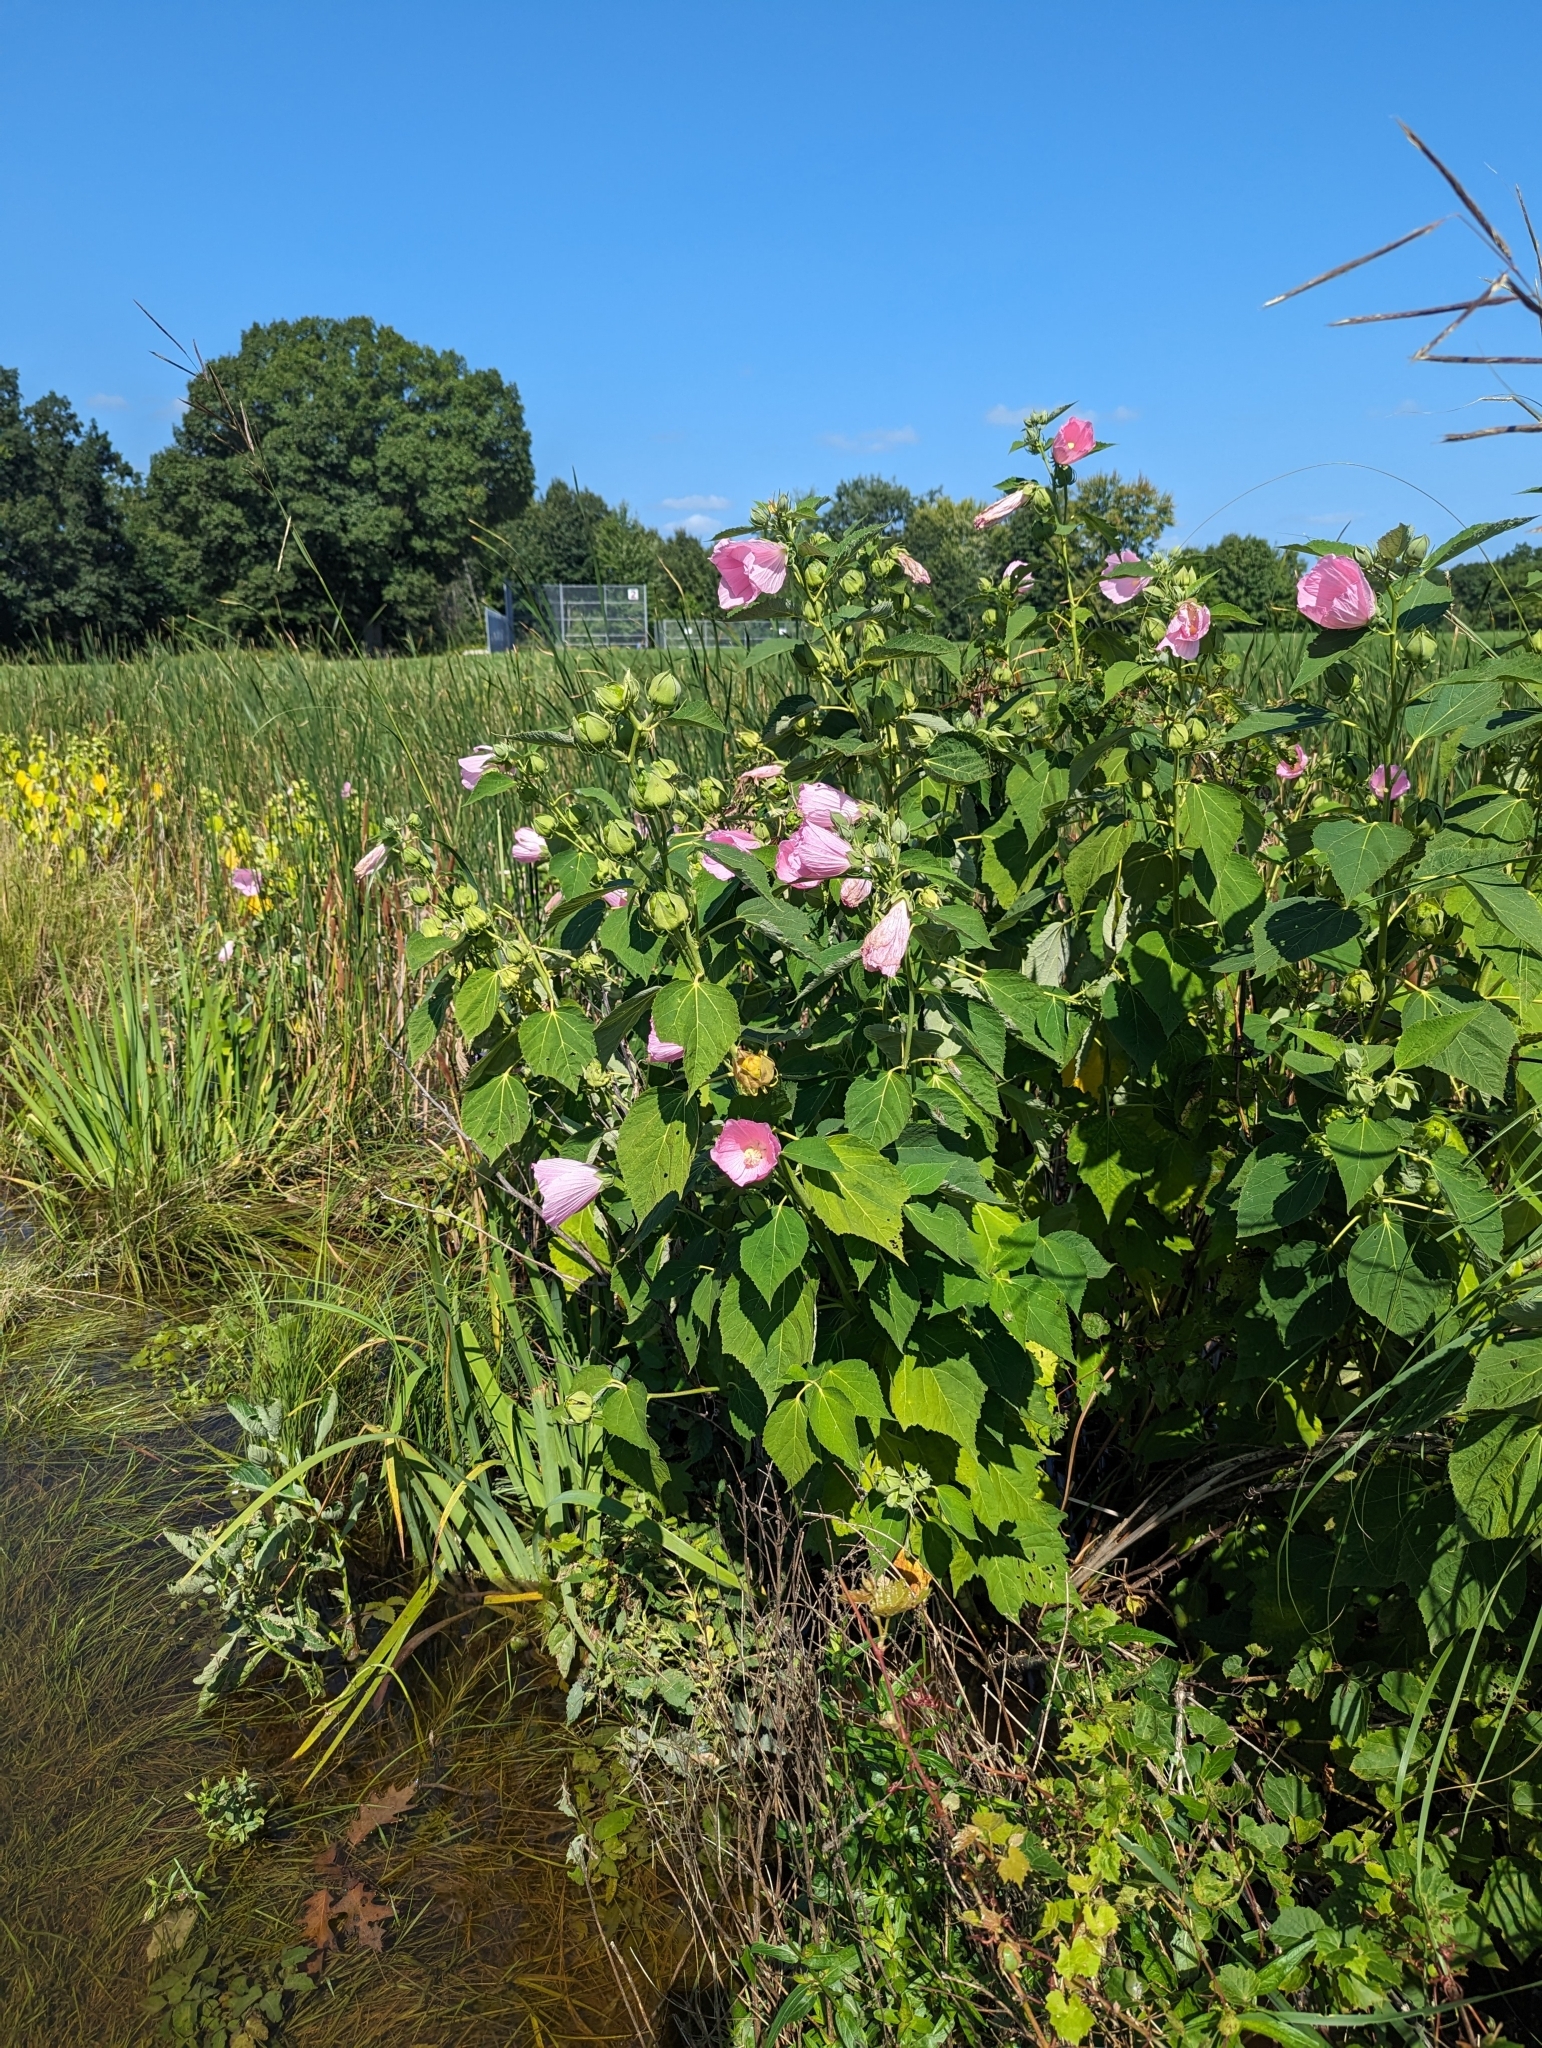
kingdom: Plantae
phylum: Tracheophyta
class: Magnoliopsida
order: Malvales
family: Malvaceae
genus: Hibiscus
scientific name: Hibiscus moscheutos
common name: Common rose-mallow
